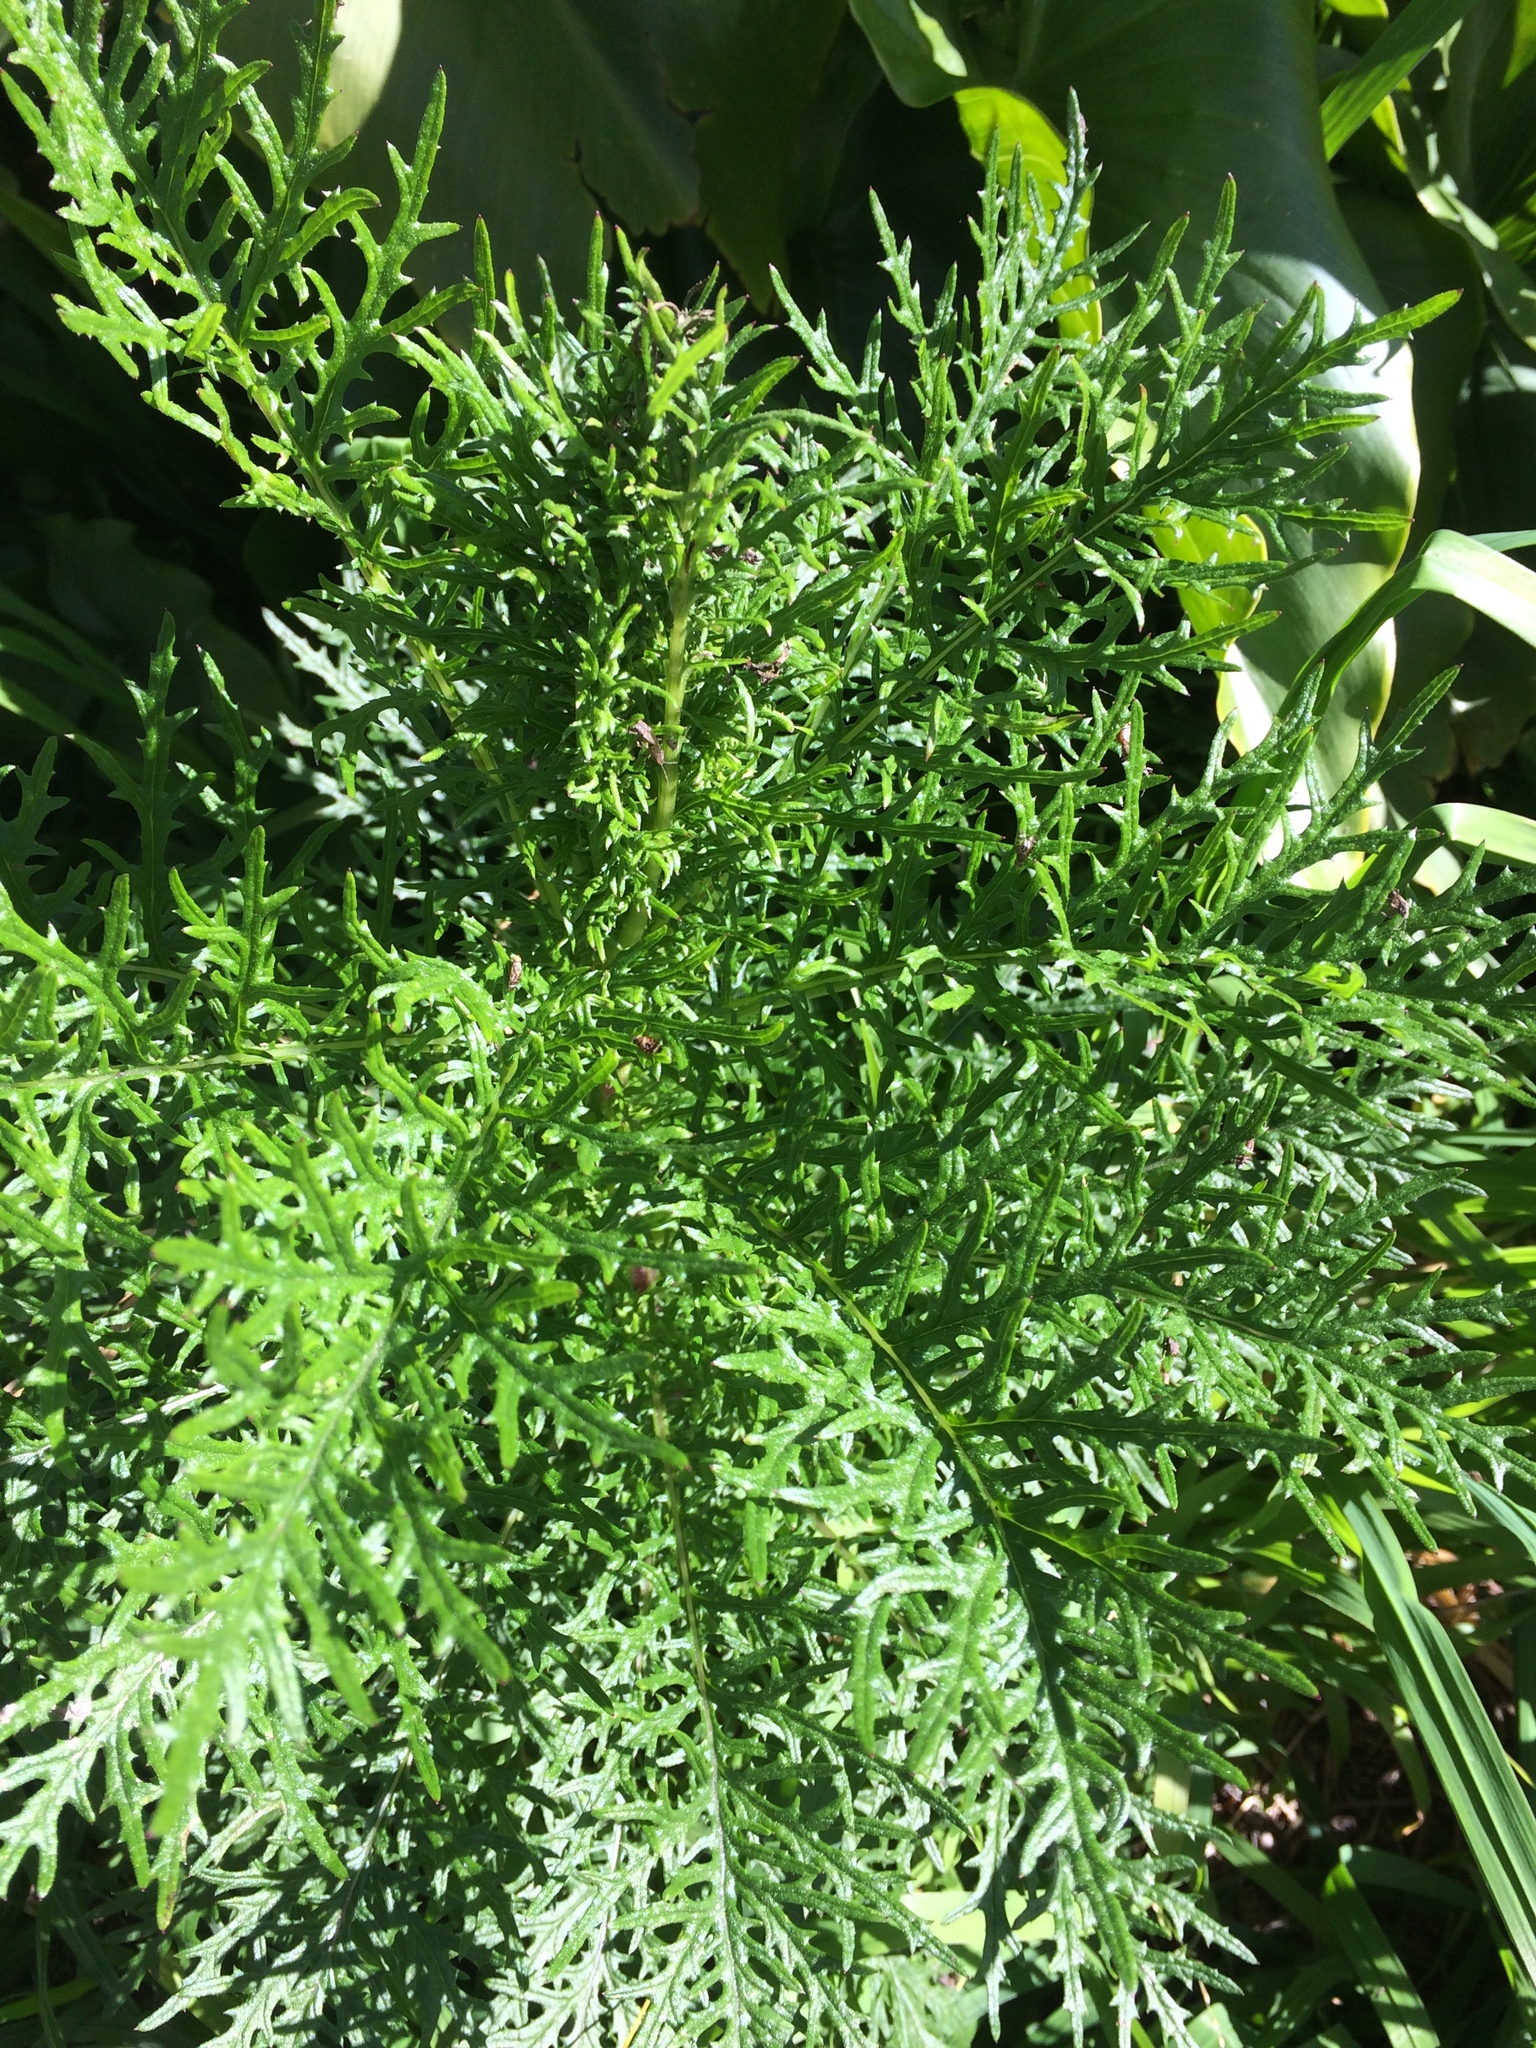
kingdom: Plantae
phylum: Tracheophyta
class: Magnoliopsida
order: Asterales
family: Asteraceae
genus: Senecio
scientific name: Senecio bipinnatisectus
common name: Australian fireweed
